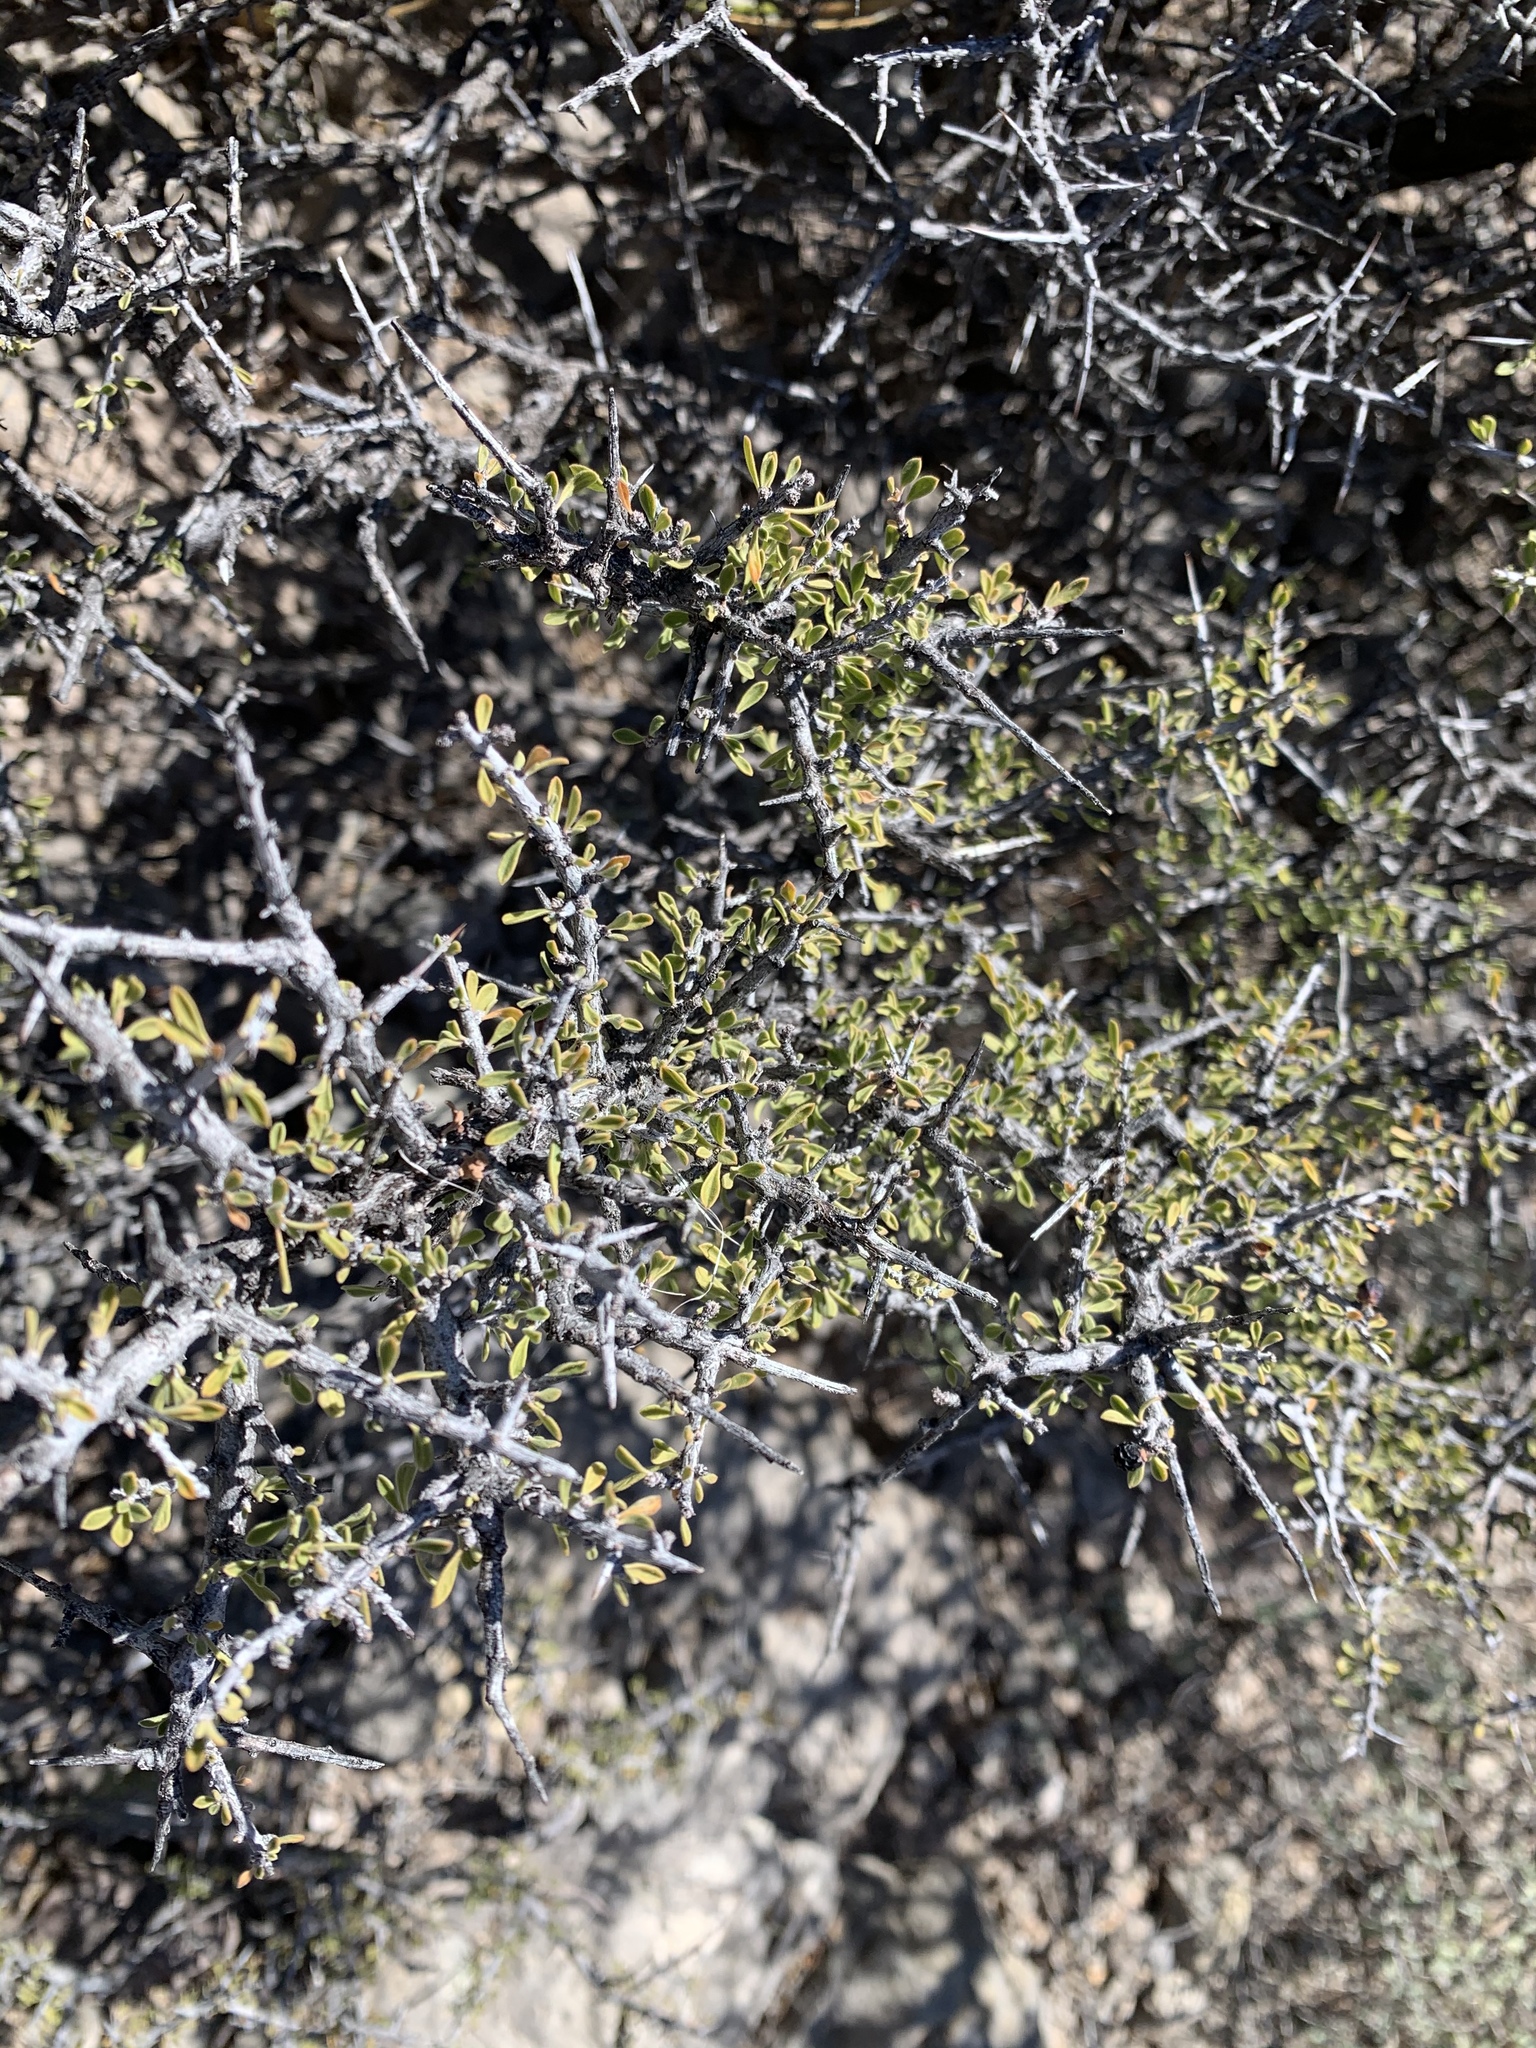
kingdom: Plantae
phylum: Tracheophyta
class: Magnoliopsida
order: Rosales
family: Rhamnaceae
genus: Condalia
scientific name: Condalia warnockii
